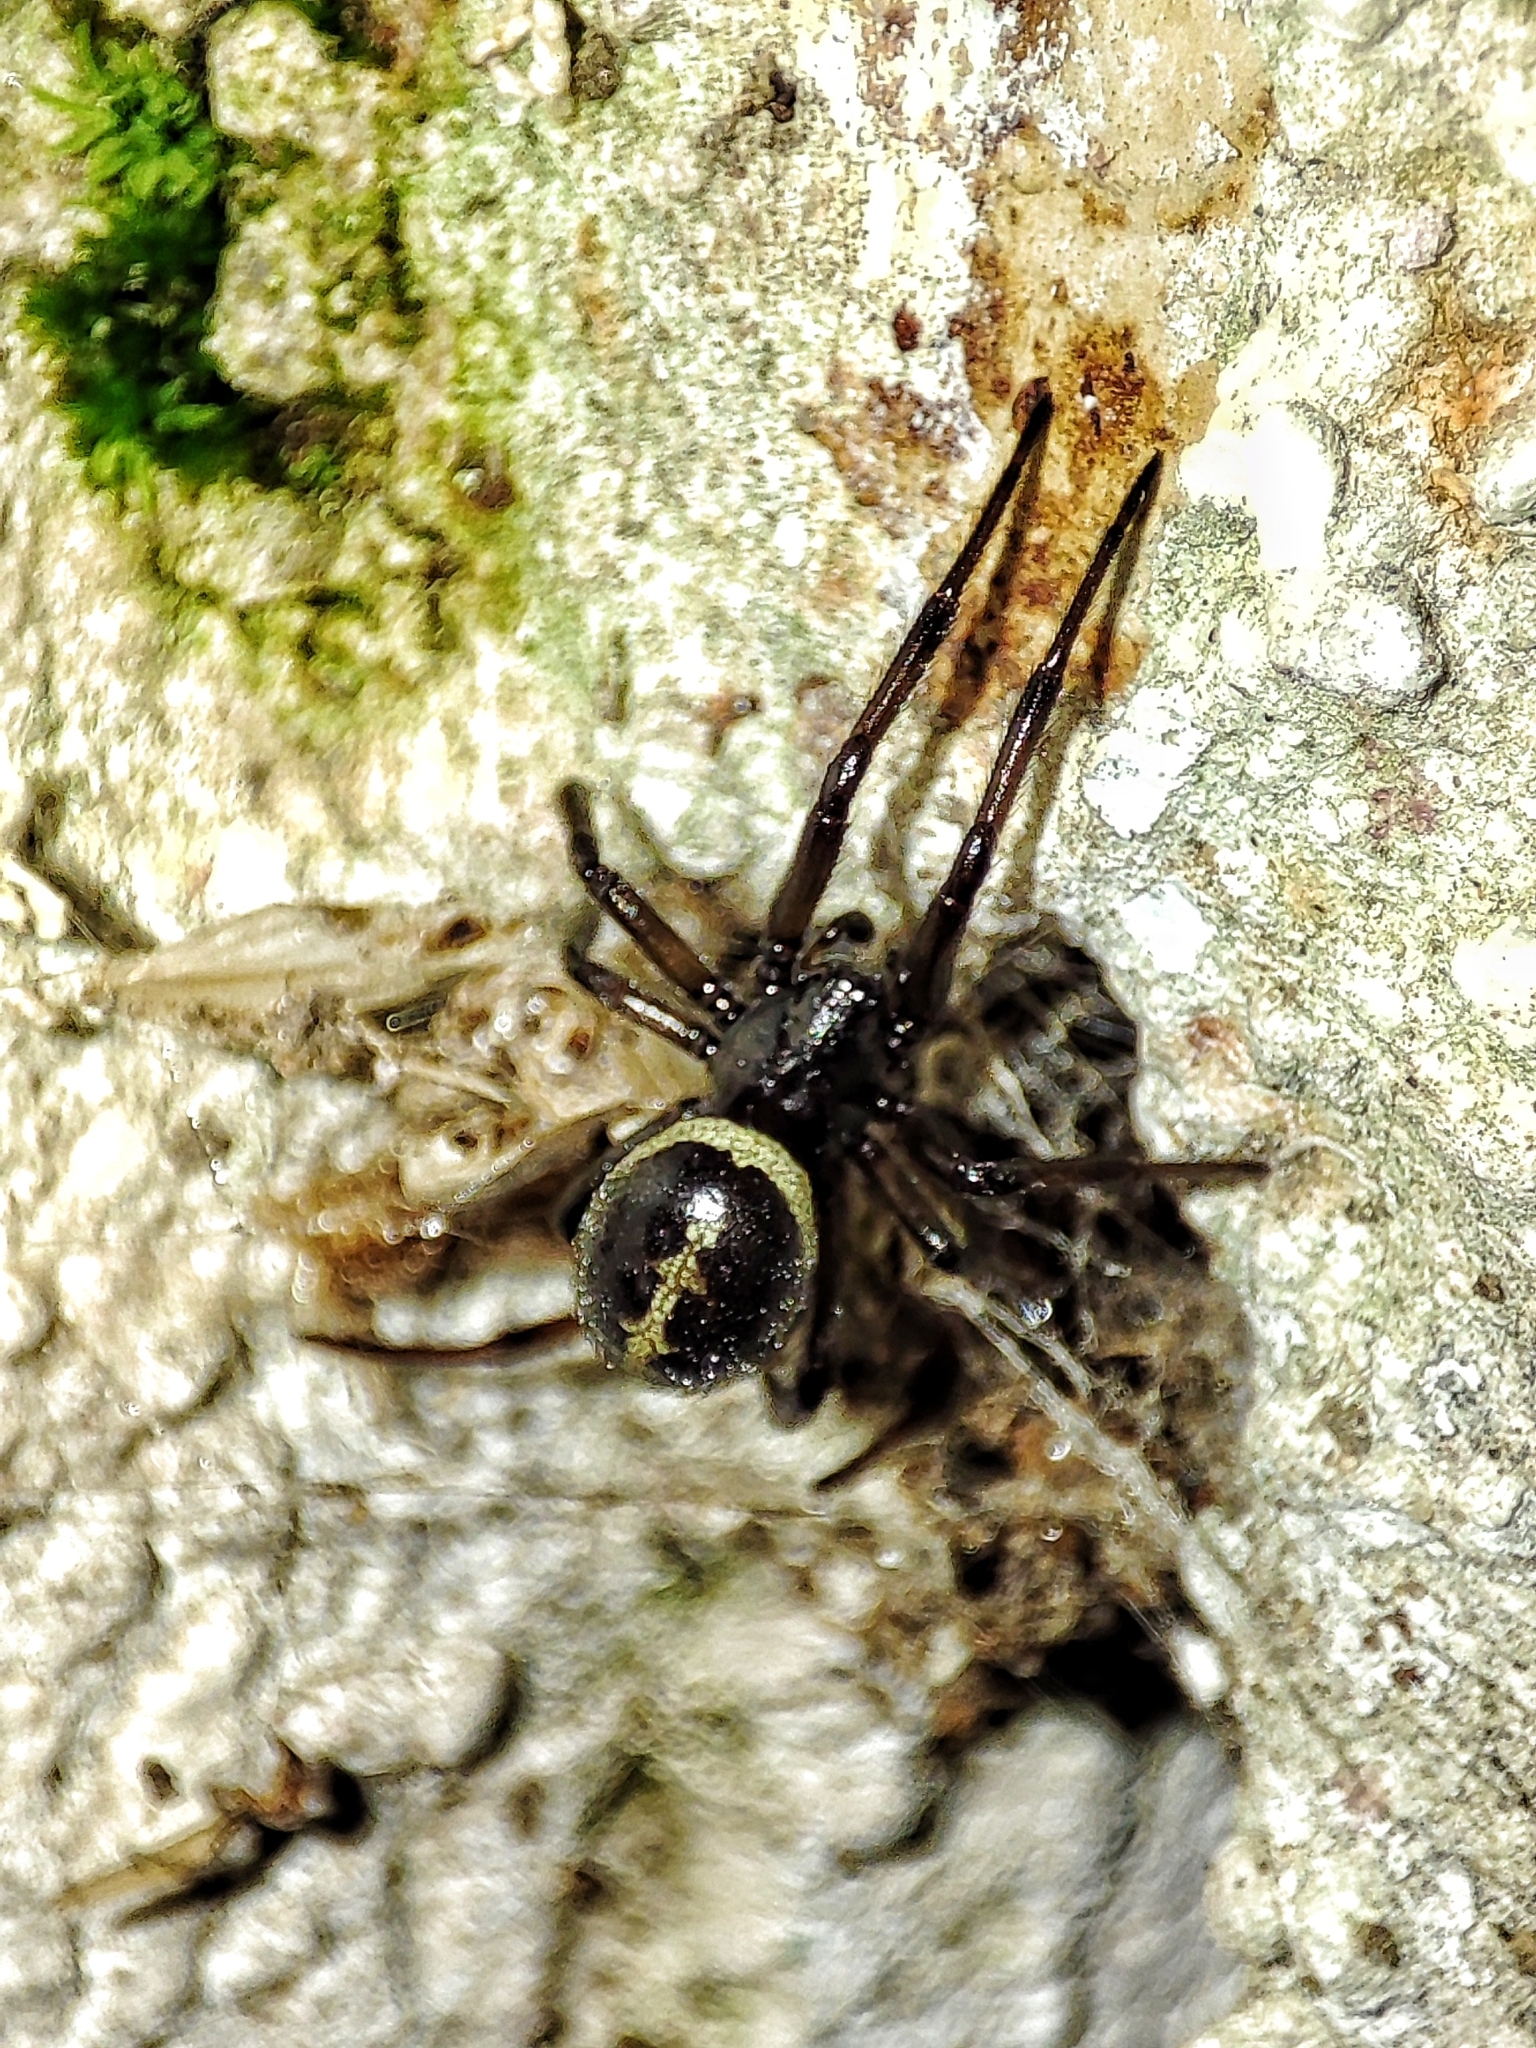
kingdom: Animalia
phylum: Arthropoda
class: Arachnida
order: Araneae
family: Theridiidae
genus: Steatoda
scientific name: Steatoda paykulliana
